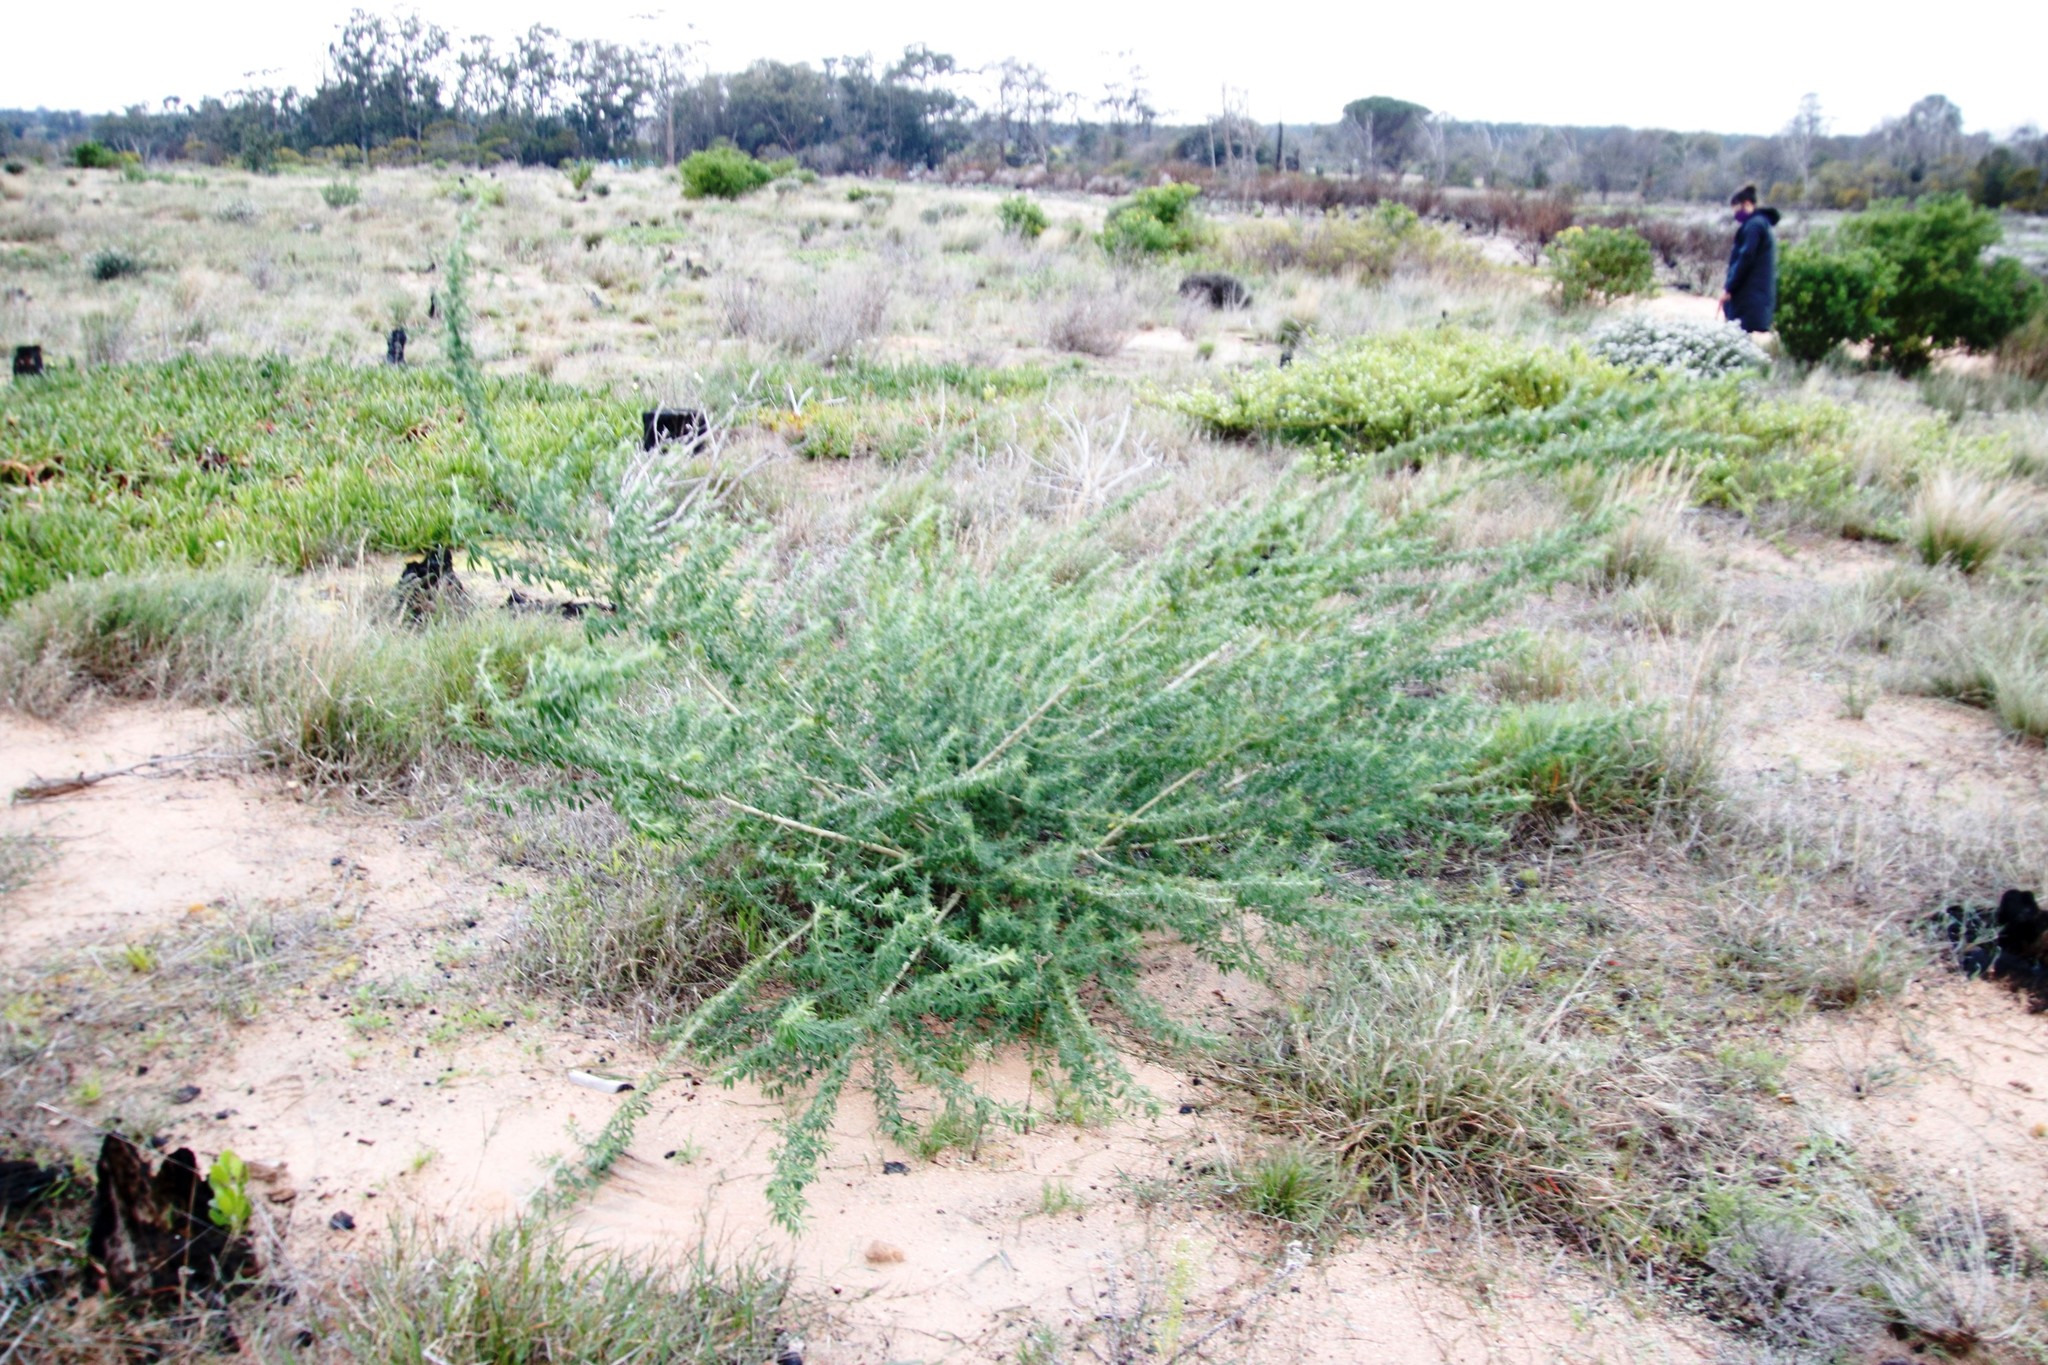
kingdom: Plantae
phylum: Tracheophyta
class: Magnoliopsida
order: Fabales
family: Fabaceae
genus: Chamaecytisus
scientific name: Chamaecytisus prolifer
